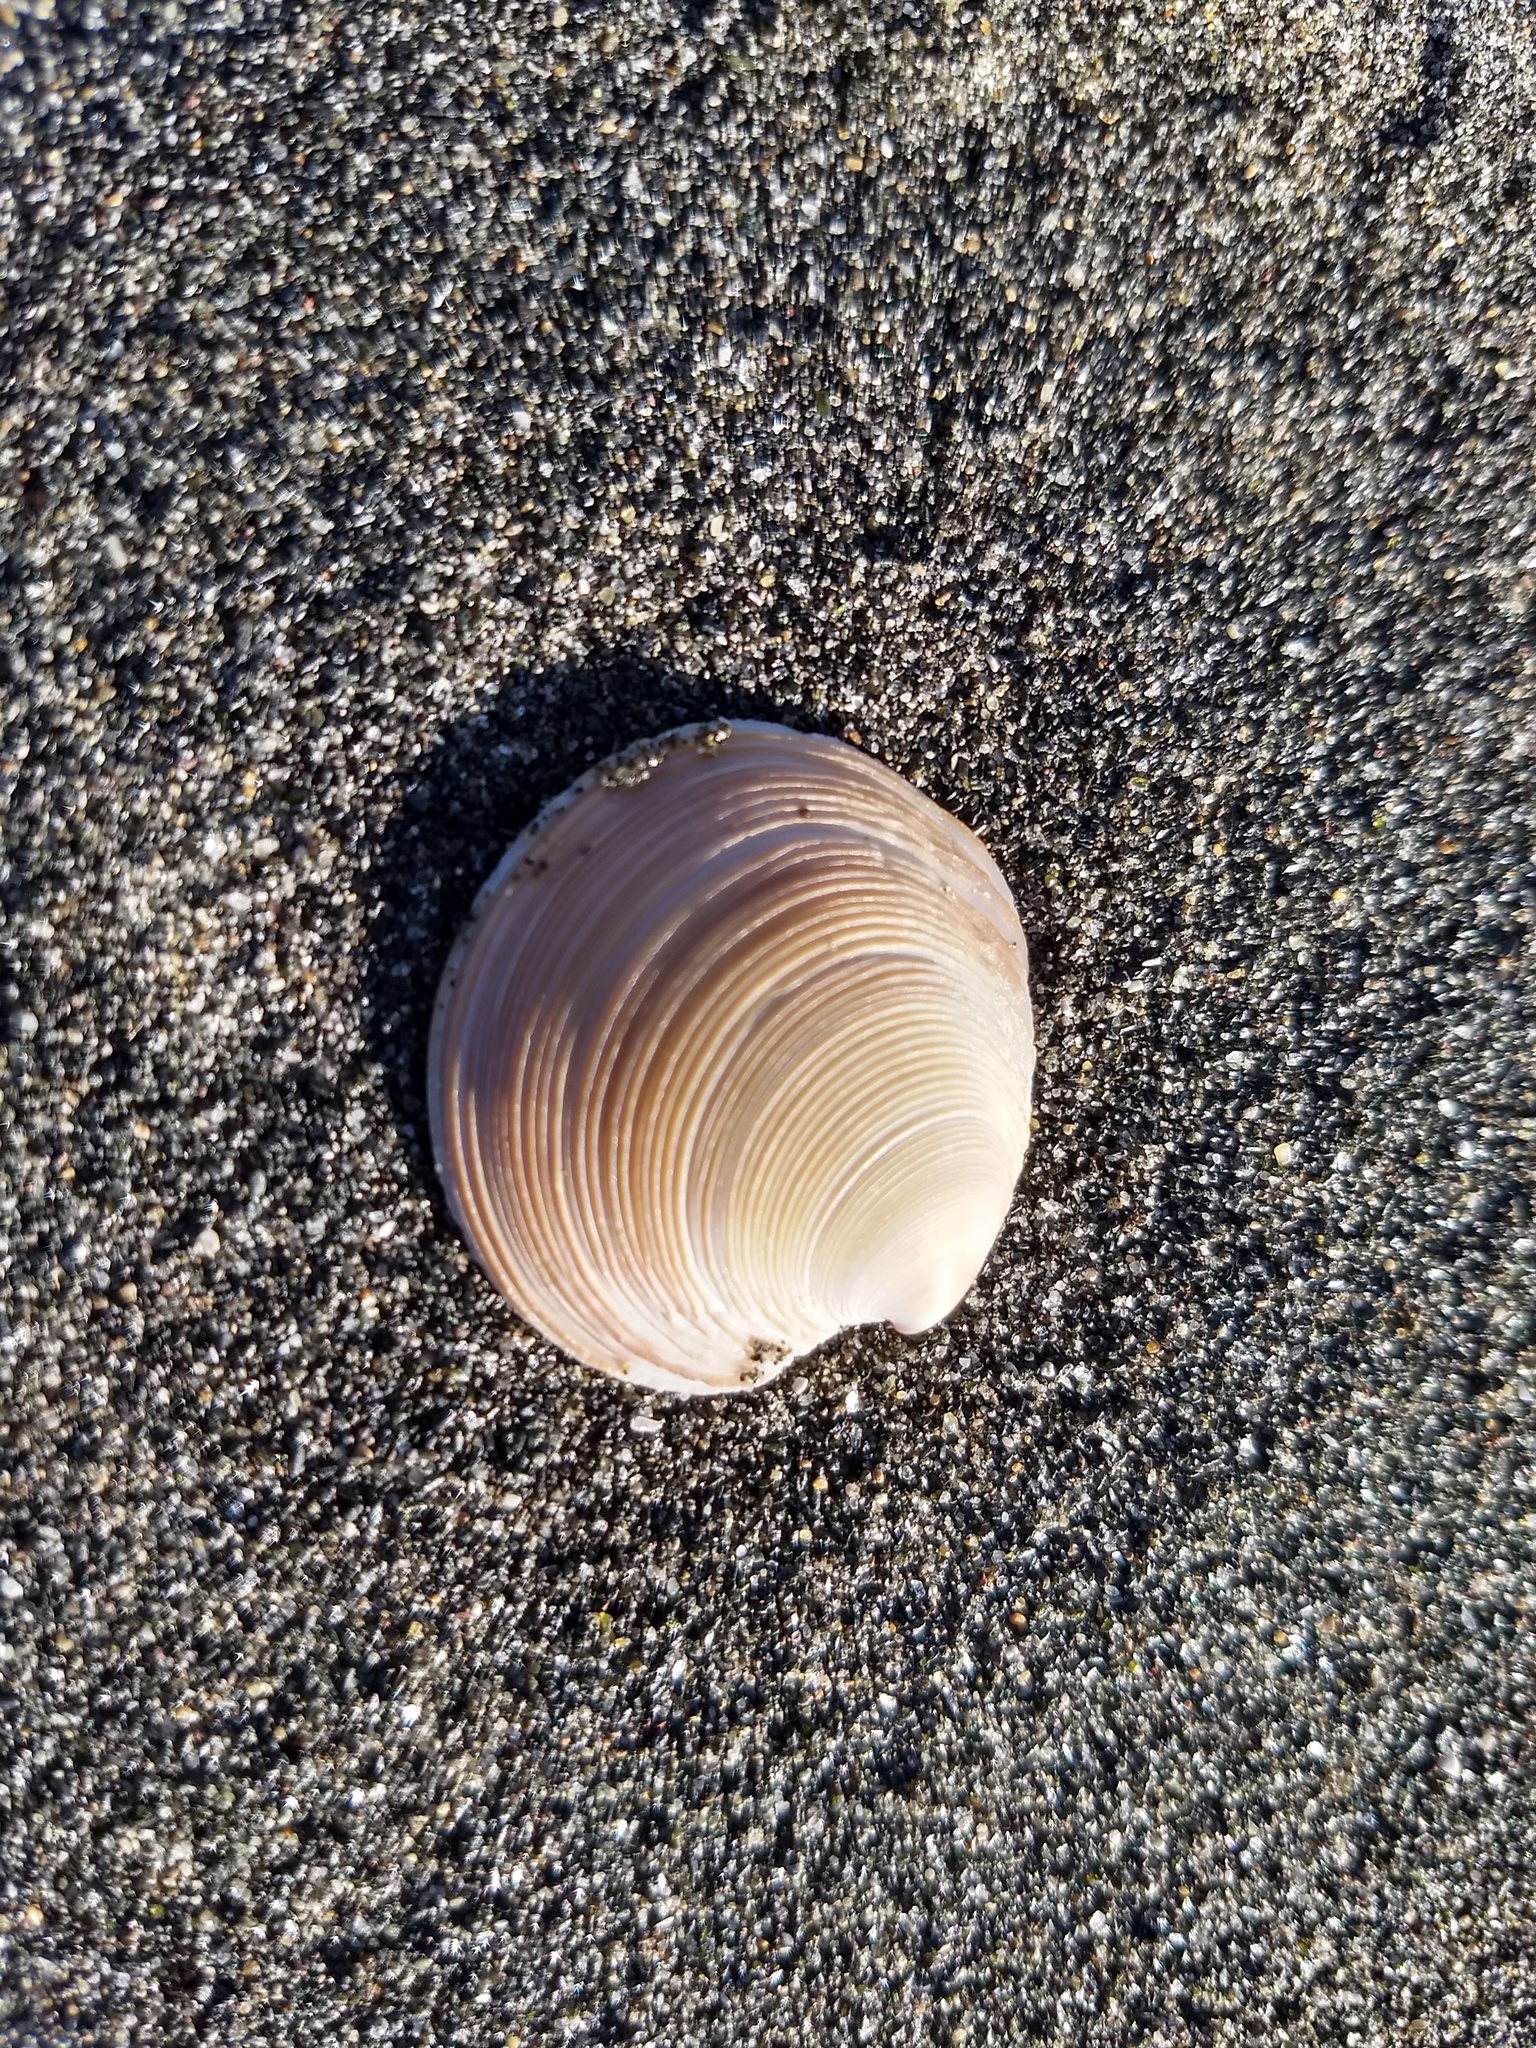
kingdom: Animalia
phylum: Mollusca
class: Bivalvia
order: Venerida
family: Veneridae
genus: Dosinia
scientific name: Dosinia anus
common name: Old-woman dosinia
